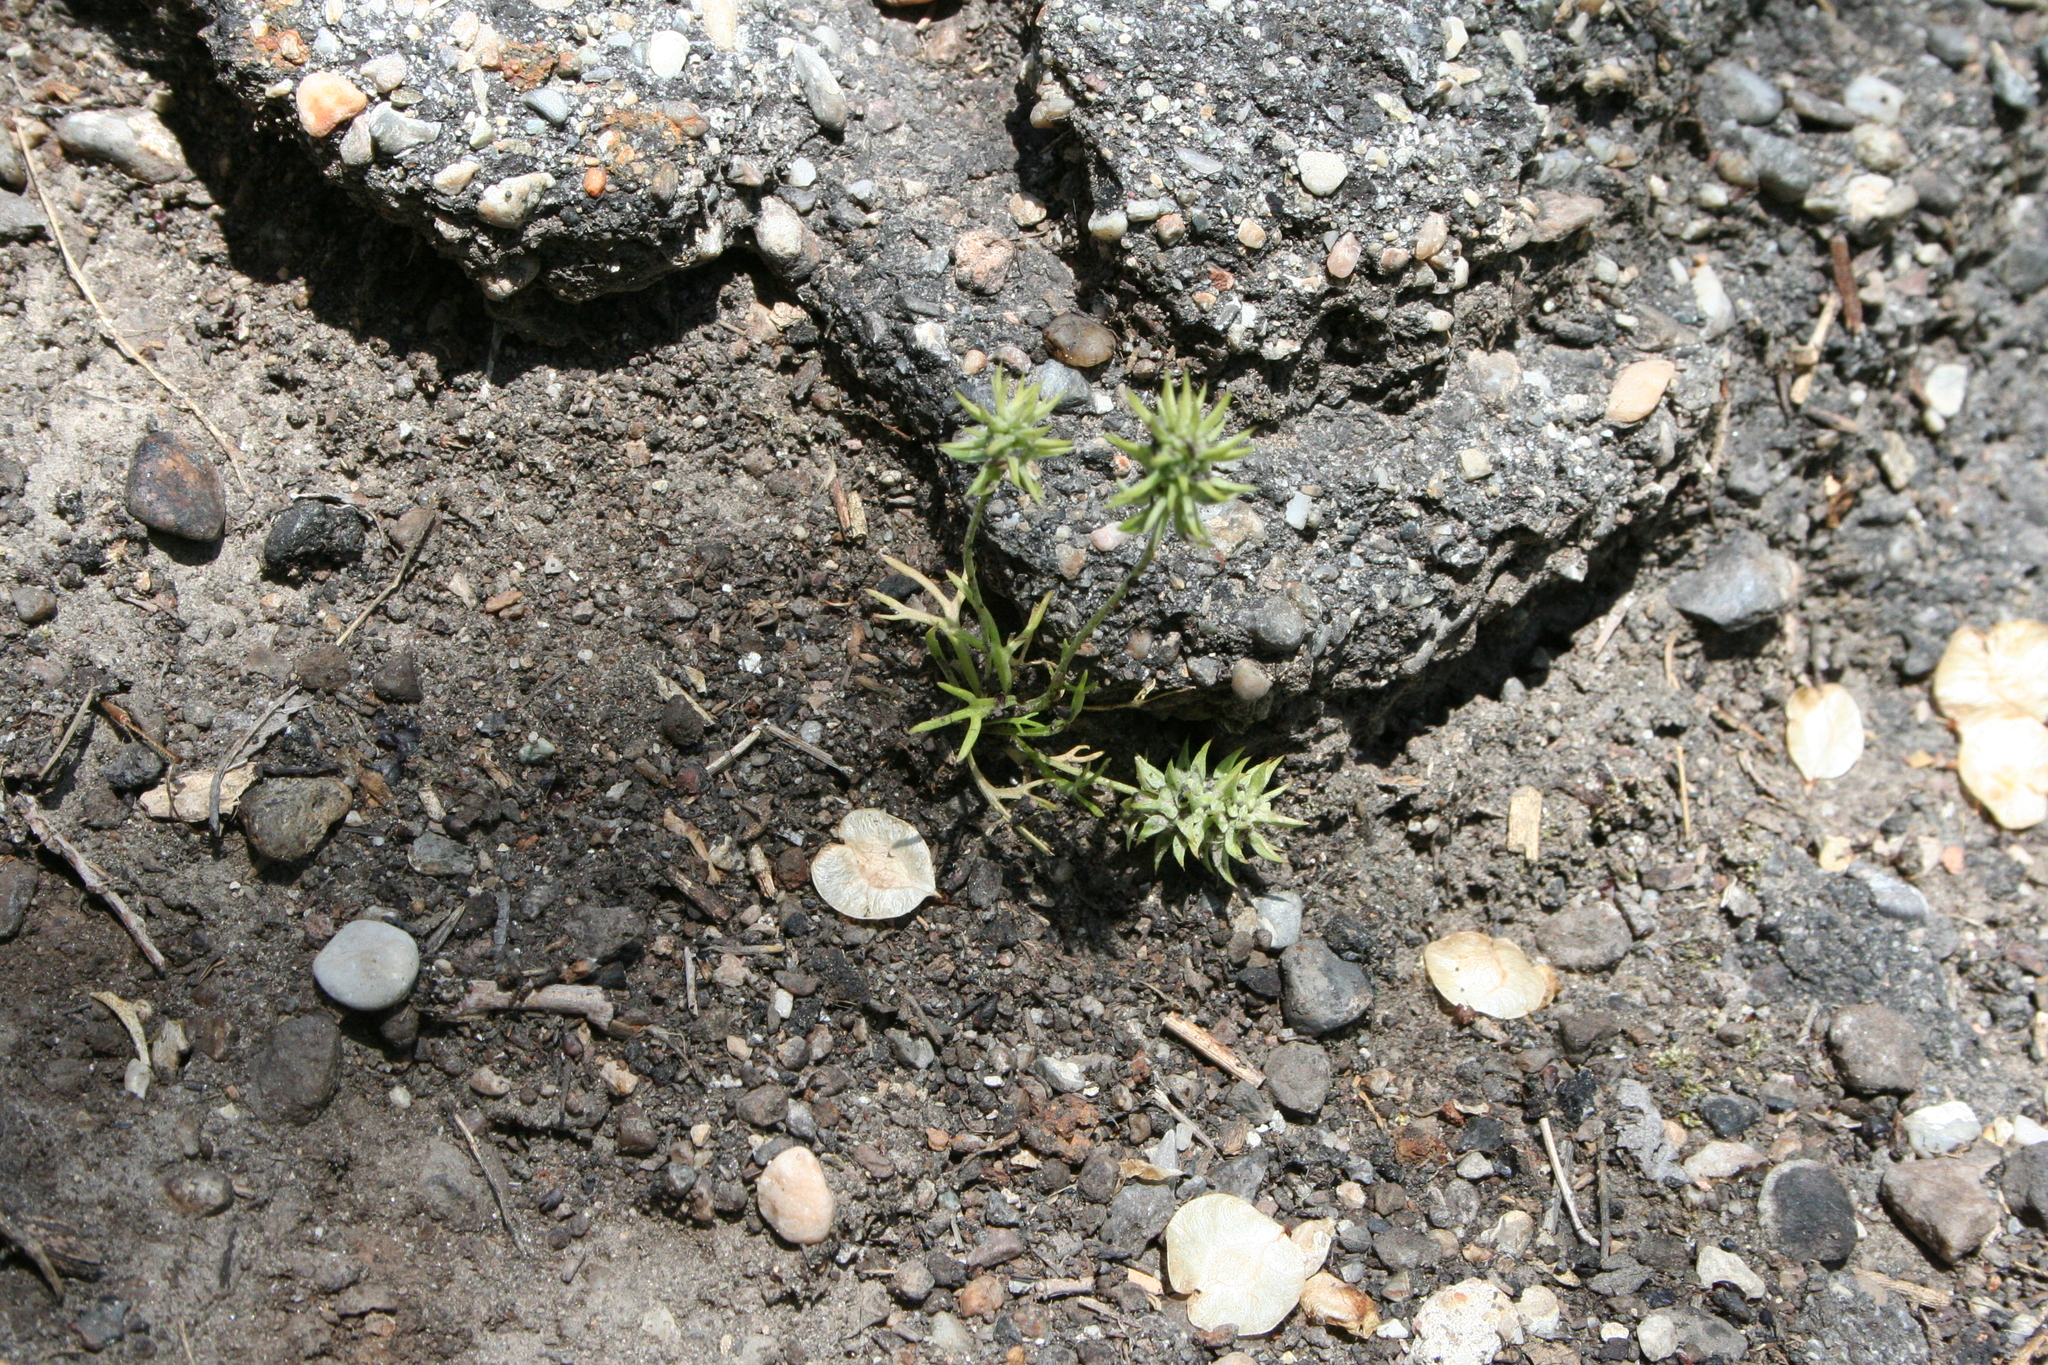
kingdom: Plantae
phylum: Tracheophyta
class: Magnoliopsida
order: Ranunculales
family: Ranunculaceae
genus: Ceratocephala
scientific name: Ceratocephala orthoceras
